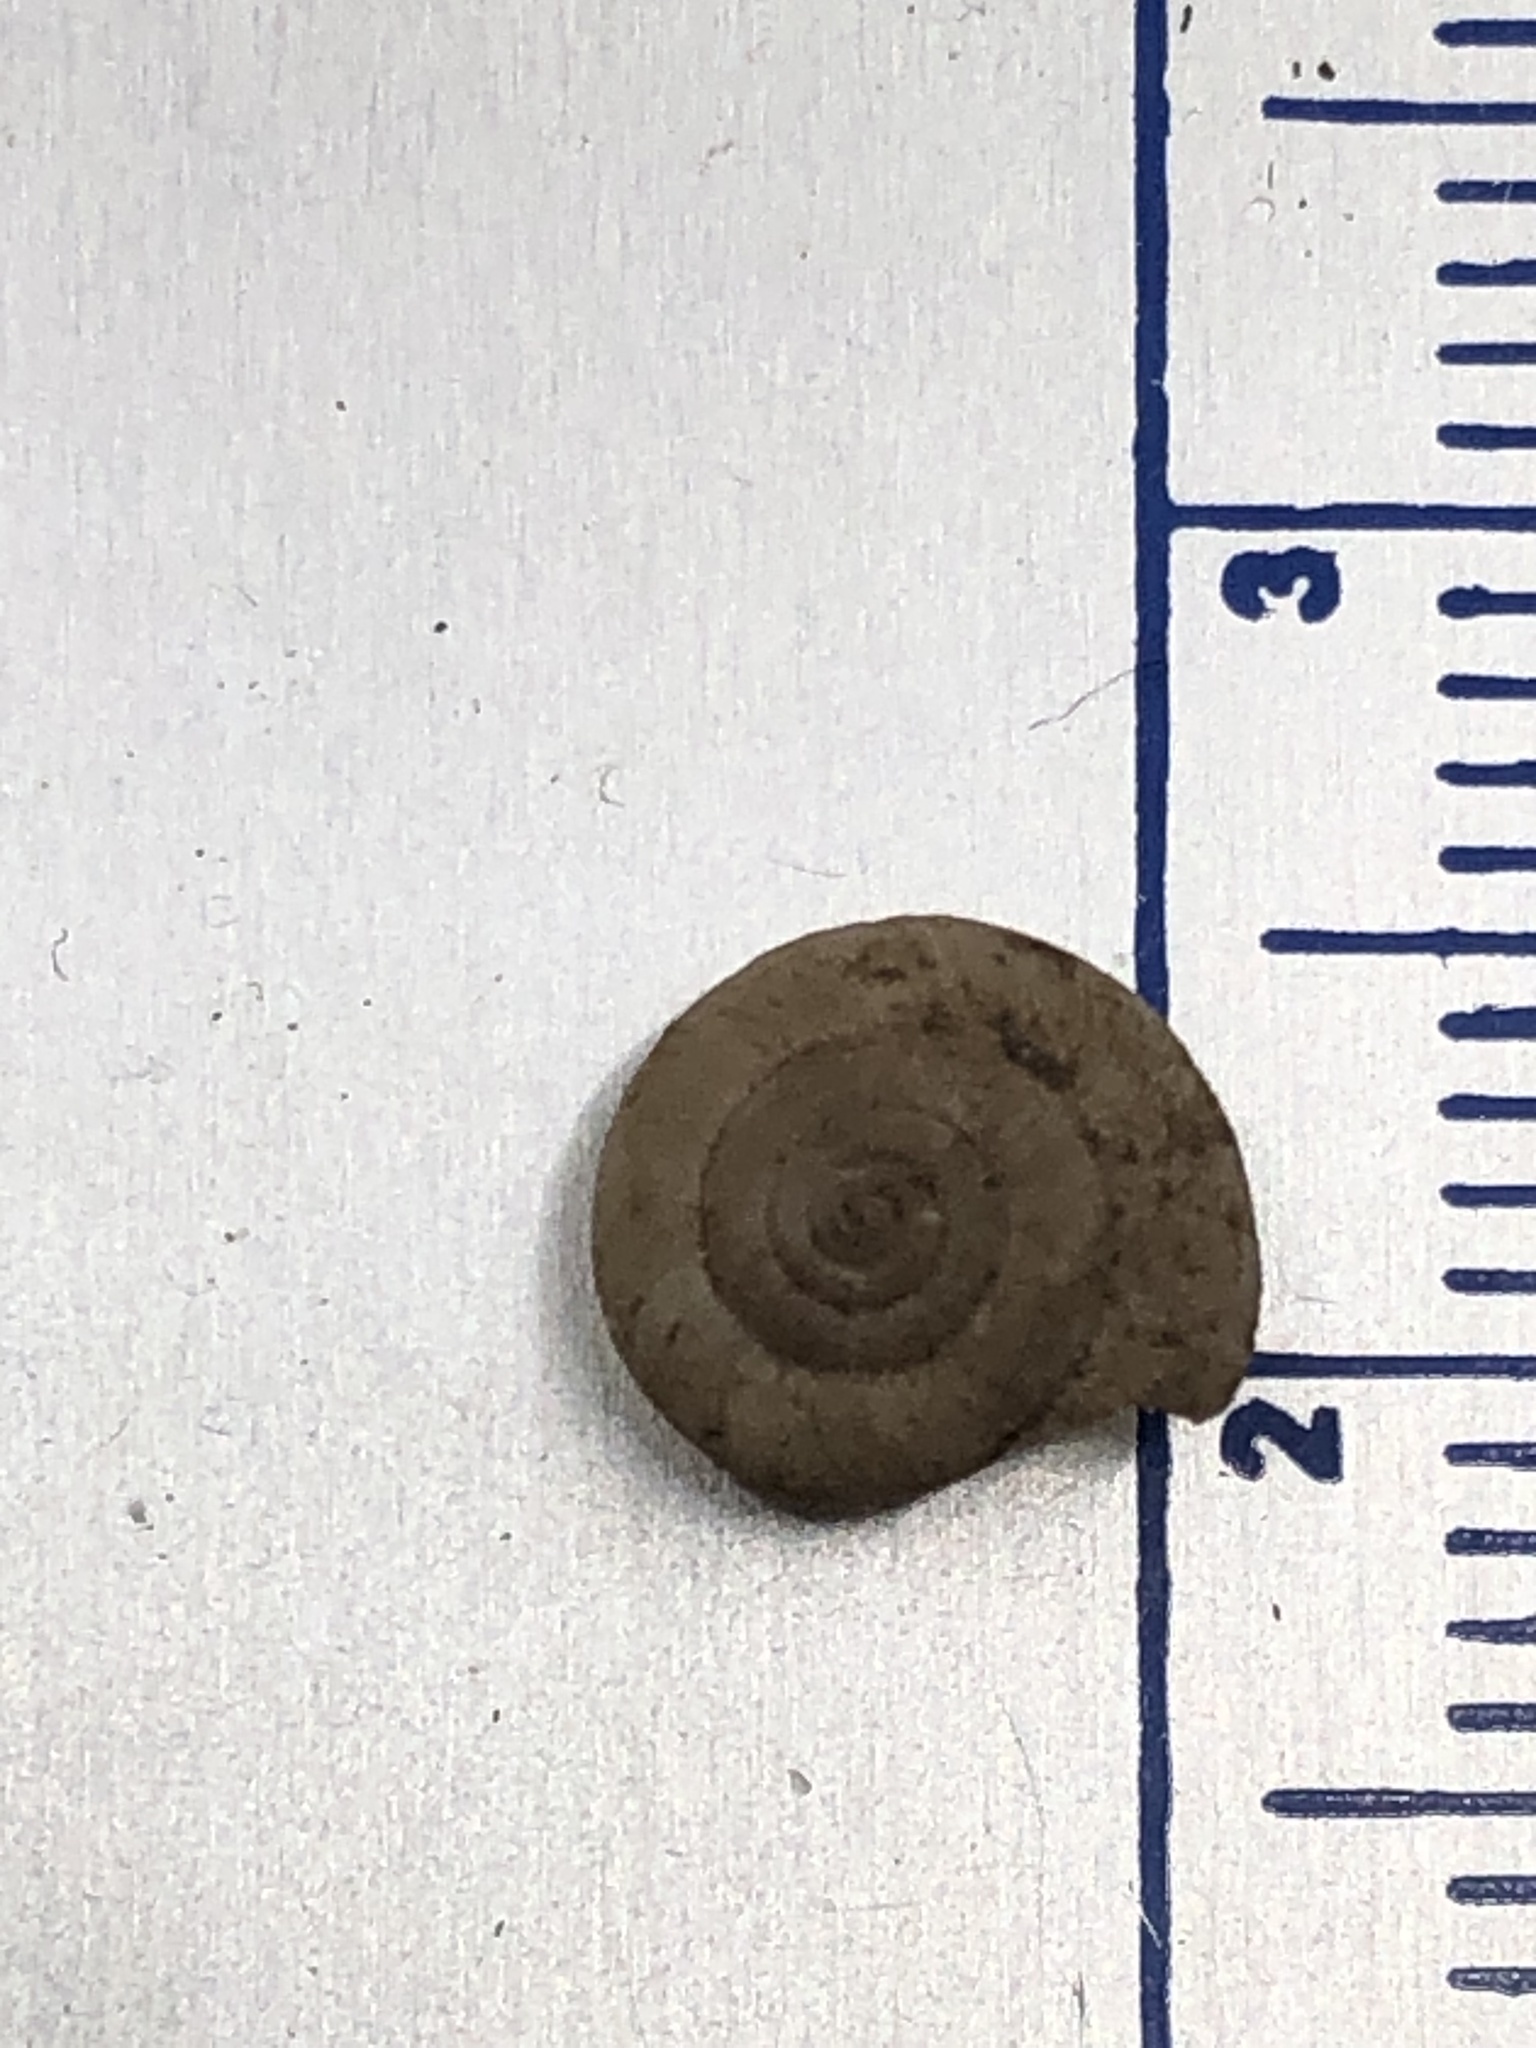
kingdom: Animalia
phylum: Mollusca
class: Gastropoda
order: Stylommatophora
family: Hygromiidae
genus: Trochulus
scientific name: Trochulus hispidus
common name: Hairy snail
